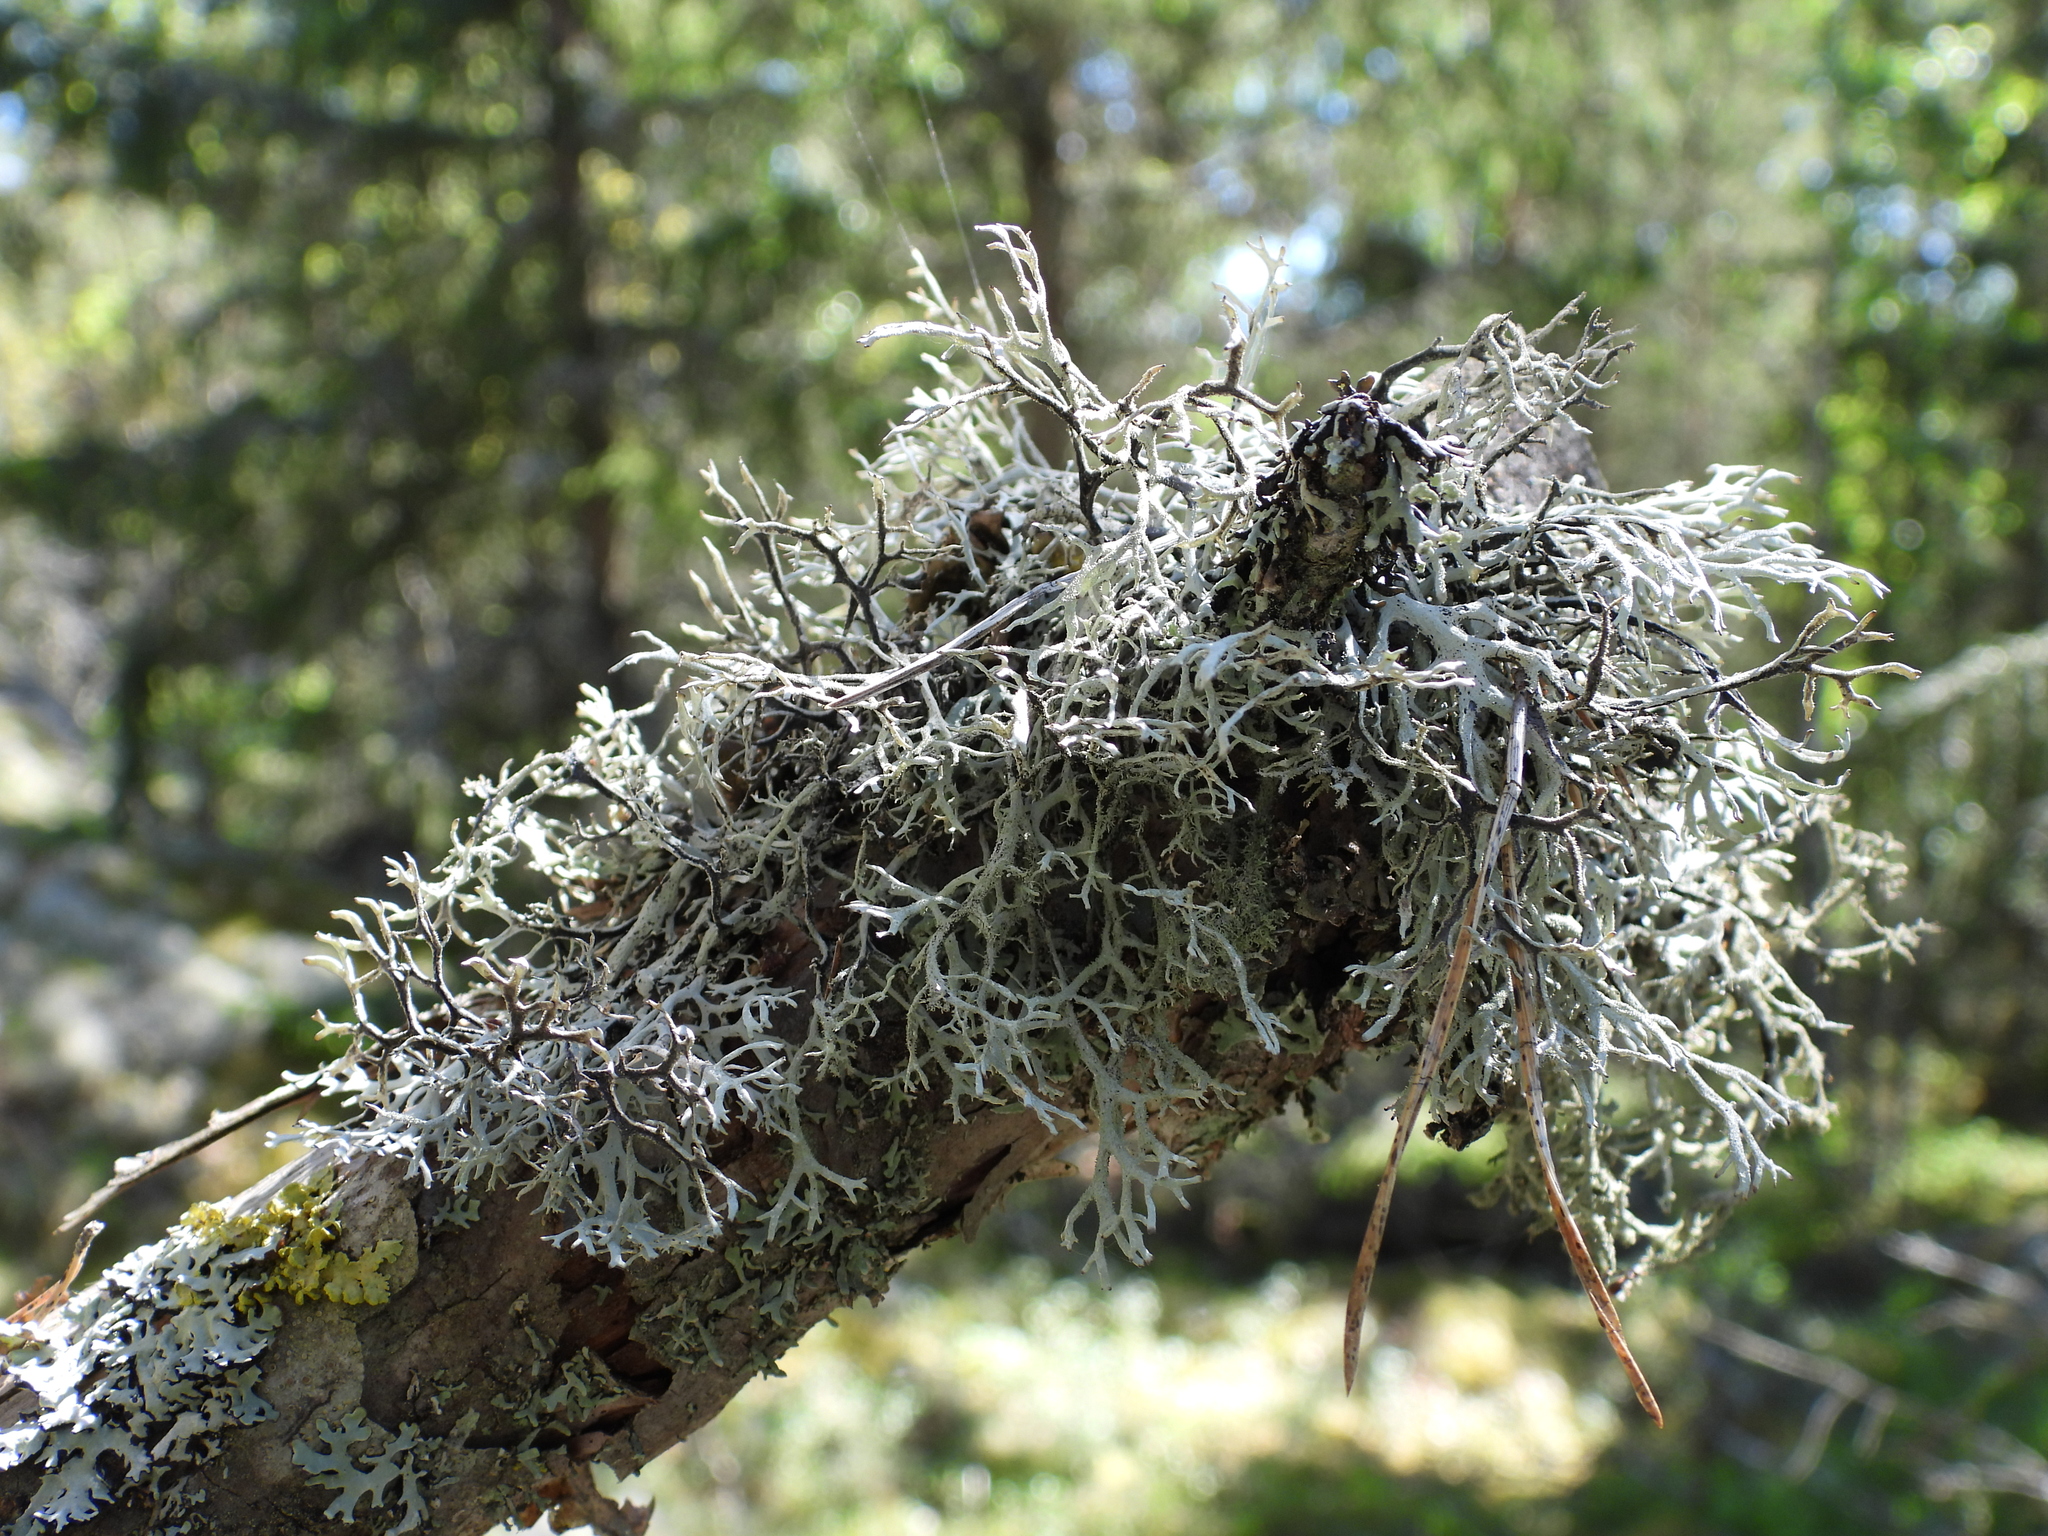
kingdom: Fungi
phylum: Ascomycota
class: Lecanoromycetes
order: Lecanorales
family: Parmeliaceae
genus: Pseudevernia
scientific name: Pseudevernia furfuracea
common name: Tree moss
